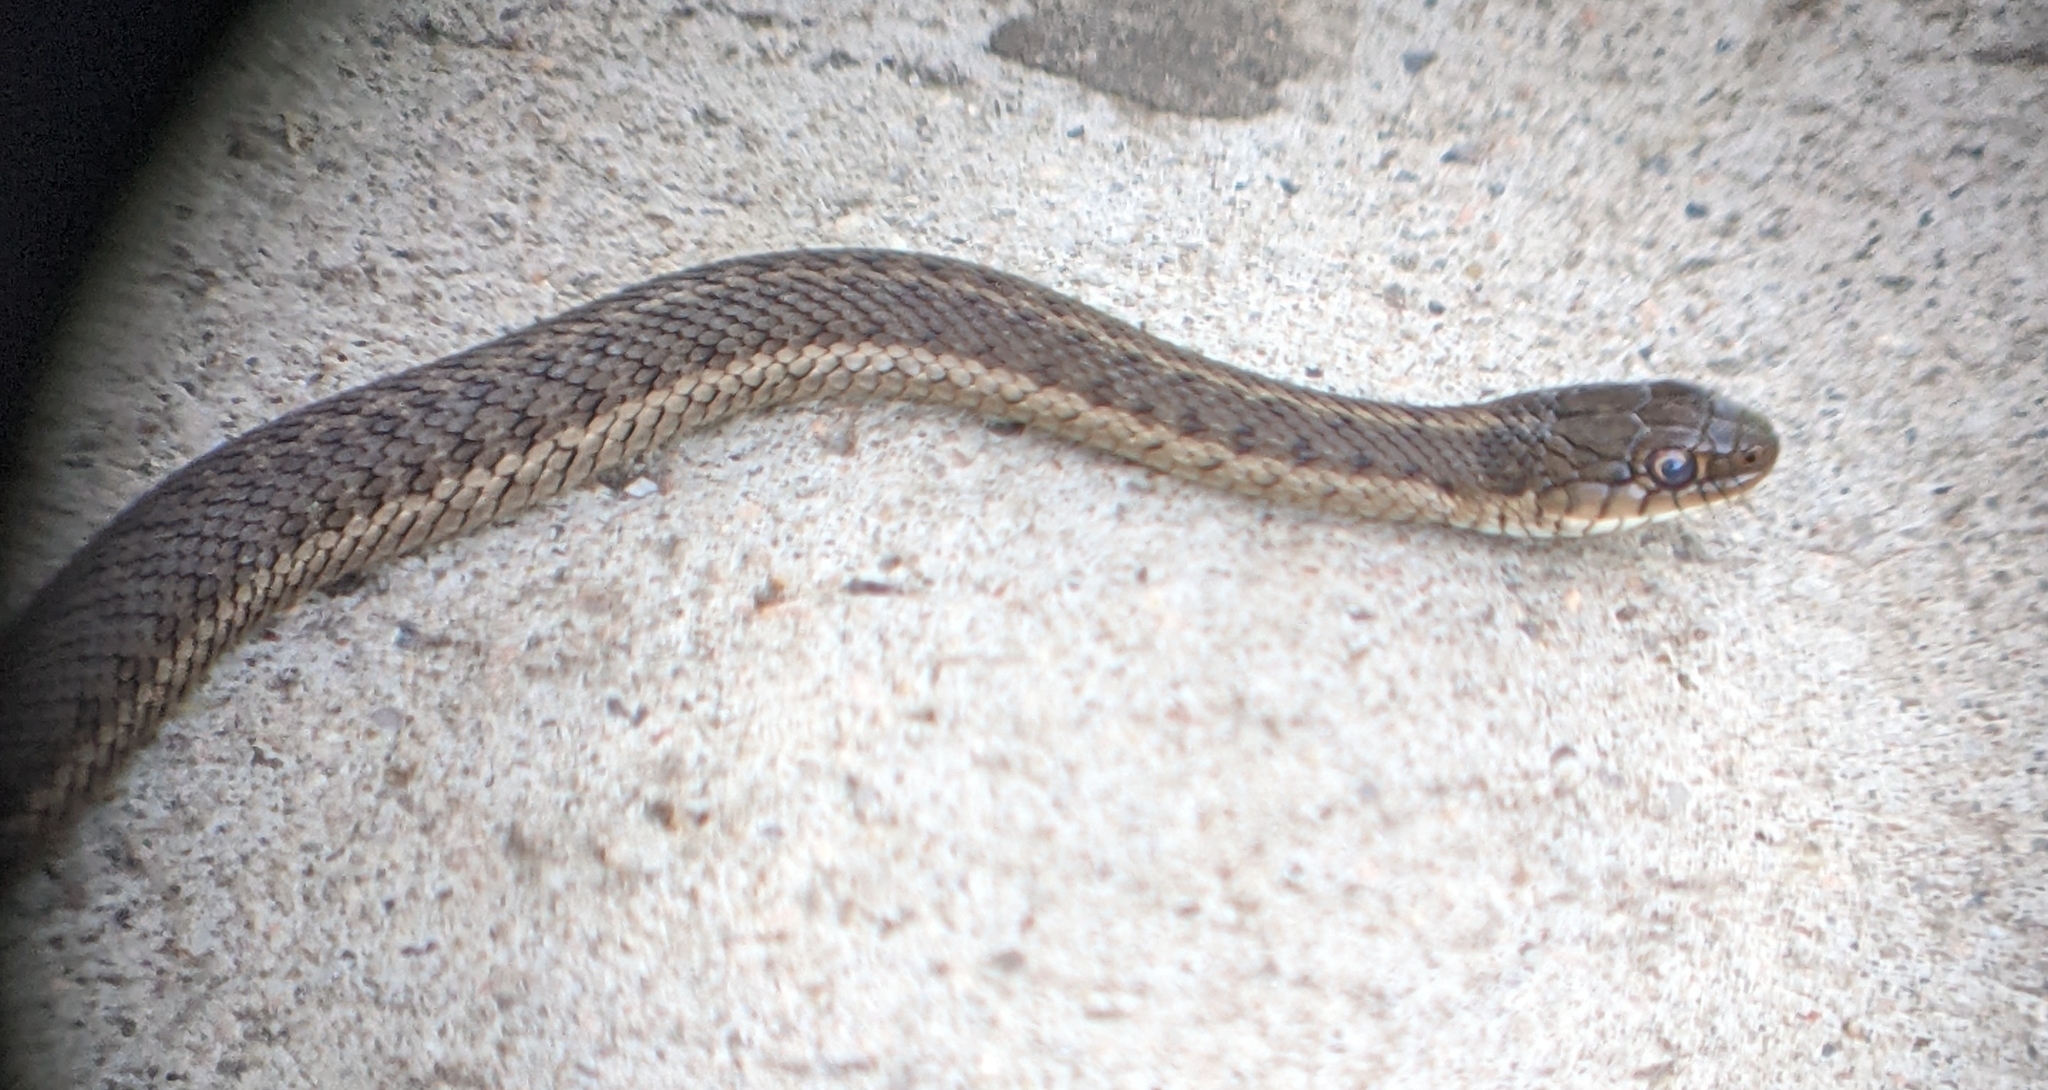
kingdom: Animalia
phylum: Chordata
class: Squamata
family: Colubridae
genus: Thamnophis
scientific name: Thamnophis elegans
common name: Western terrestrial garter snake
